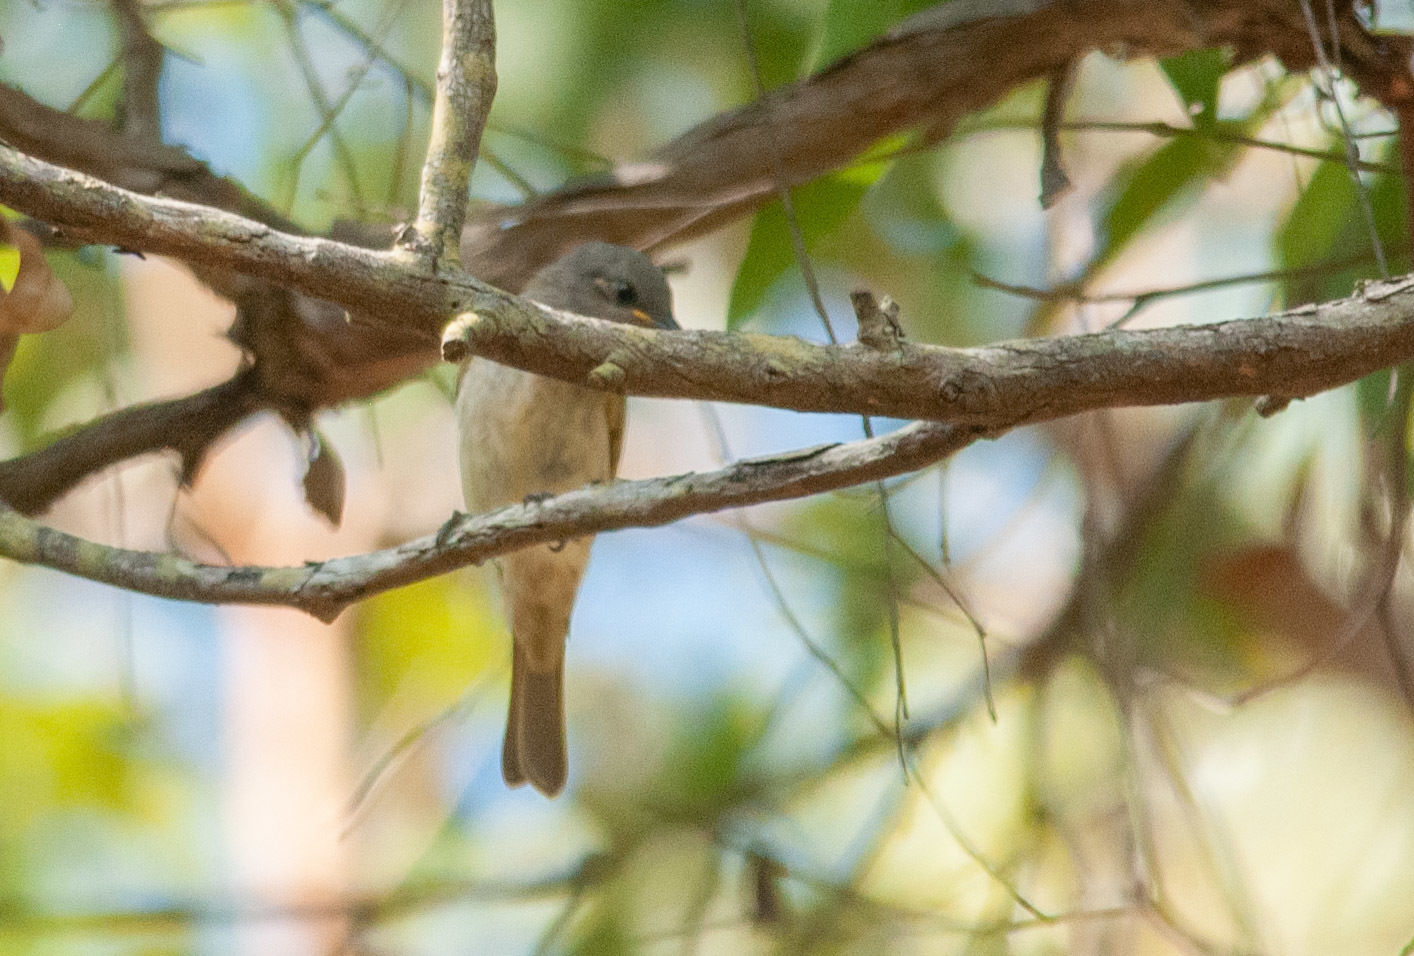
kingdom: Animalia
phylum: Chordata
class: Aves
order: Passeriformes
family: Meliphagidae
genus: Lichmera
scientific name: Lichmera indistincta
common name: Brown honeyeater
